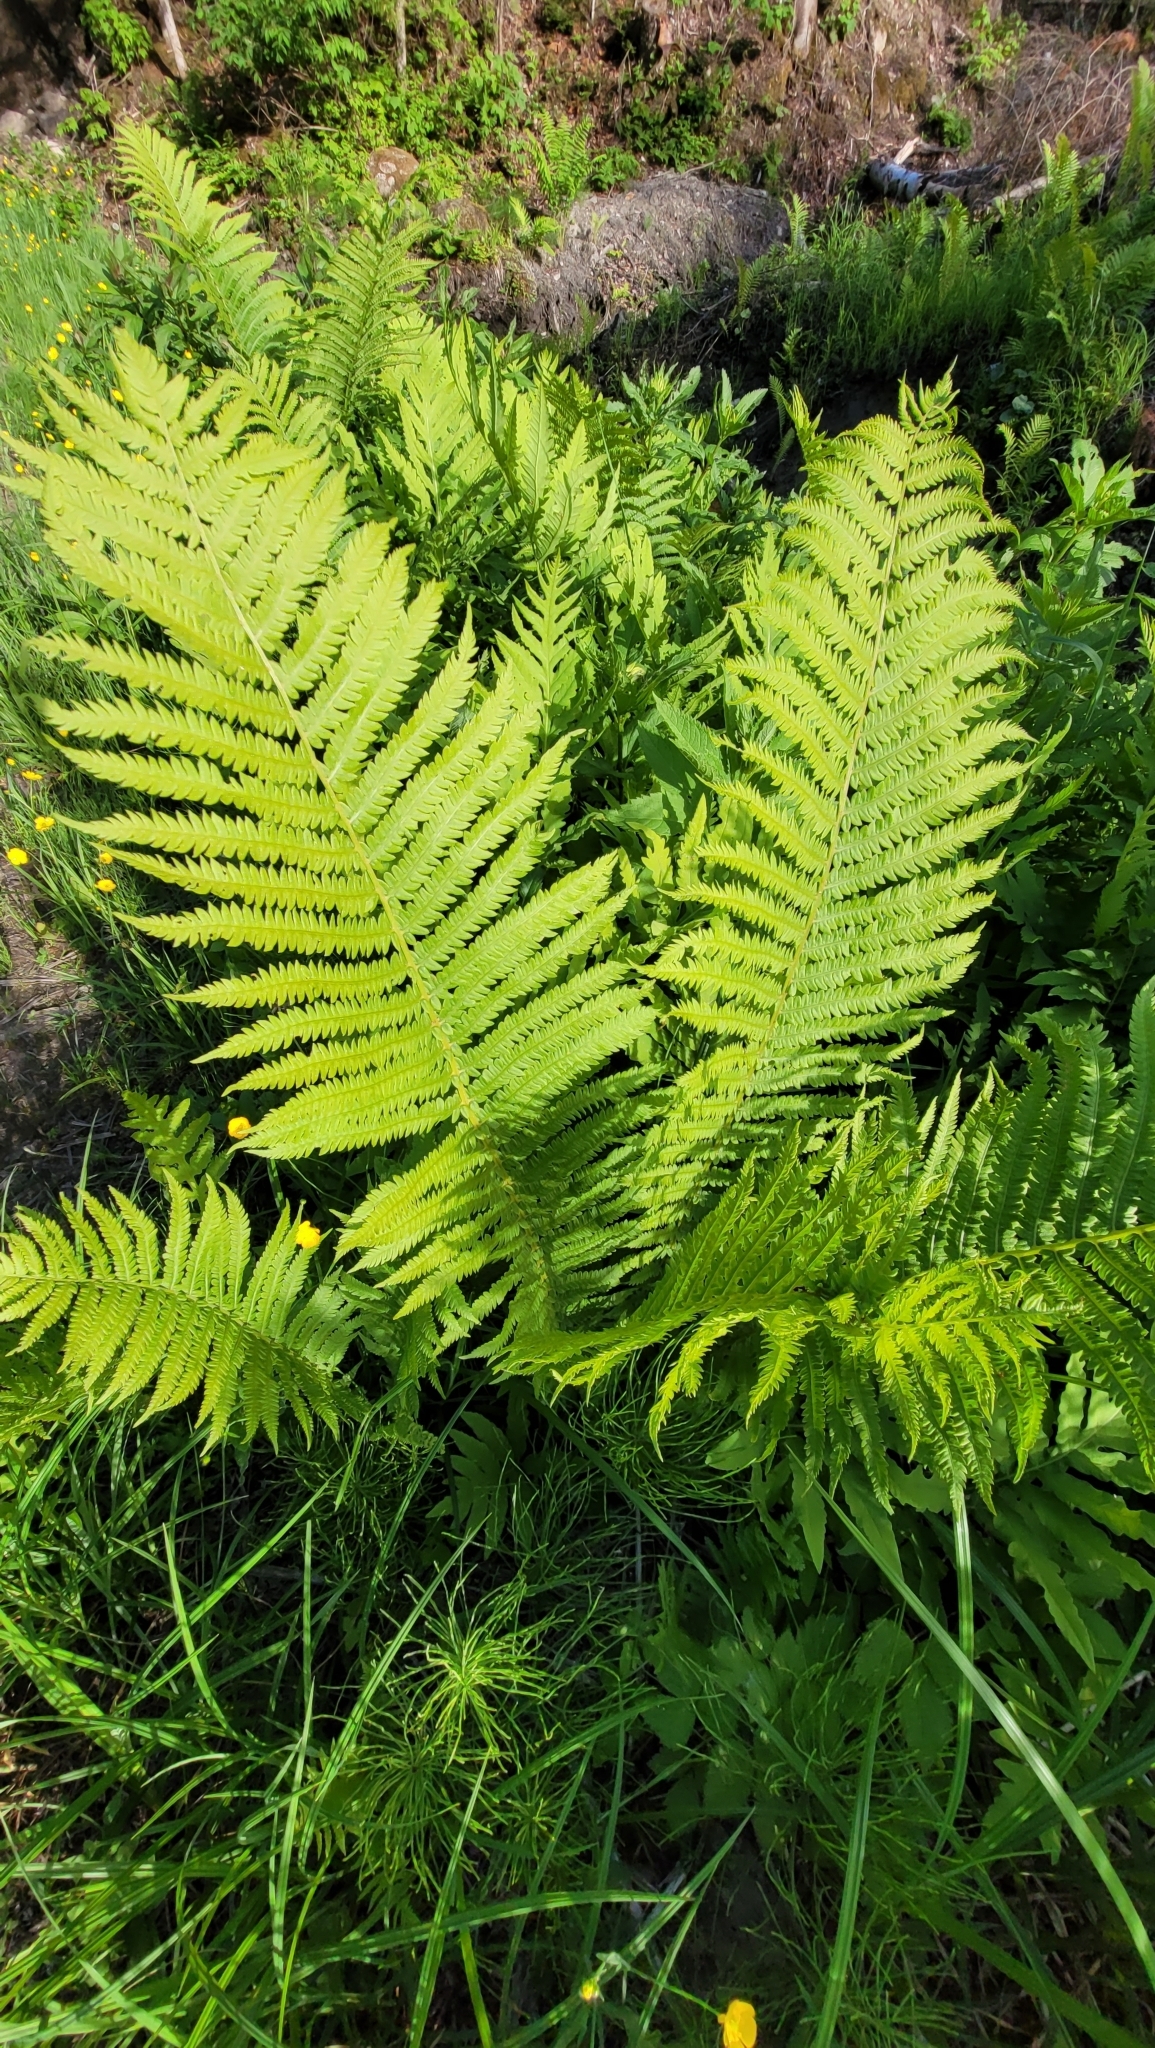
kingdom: Plantae
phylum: Tracheophyta
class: Polypodiopsida
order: Polypodiales
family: Onocleaceae
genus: Matteuccia
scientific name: Matteuccia struthiopteris
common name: Ostrich fern
